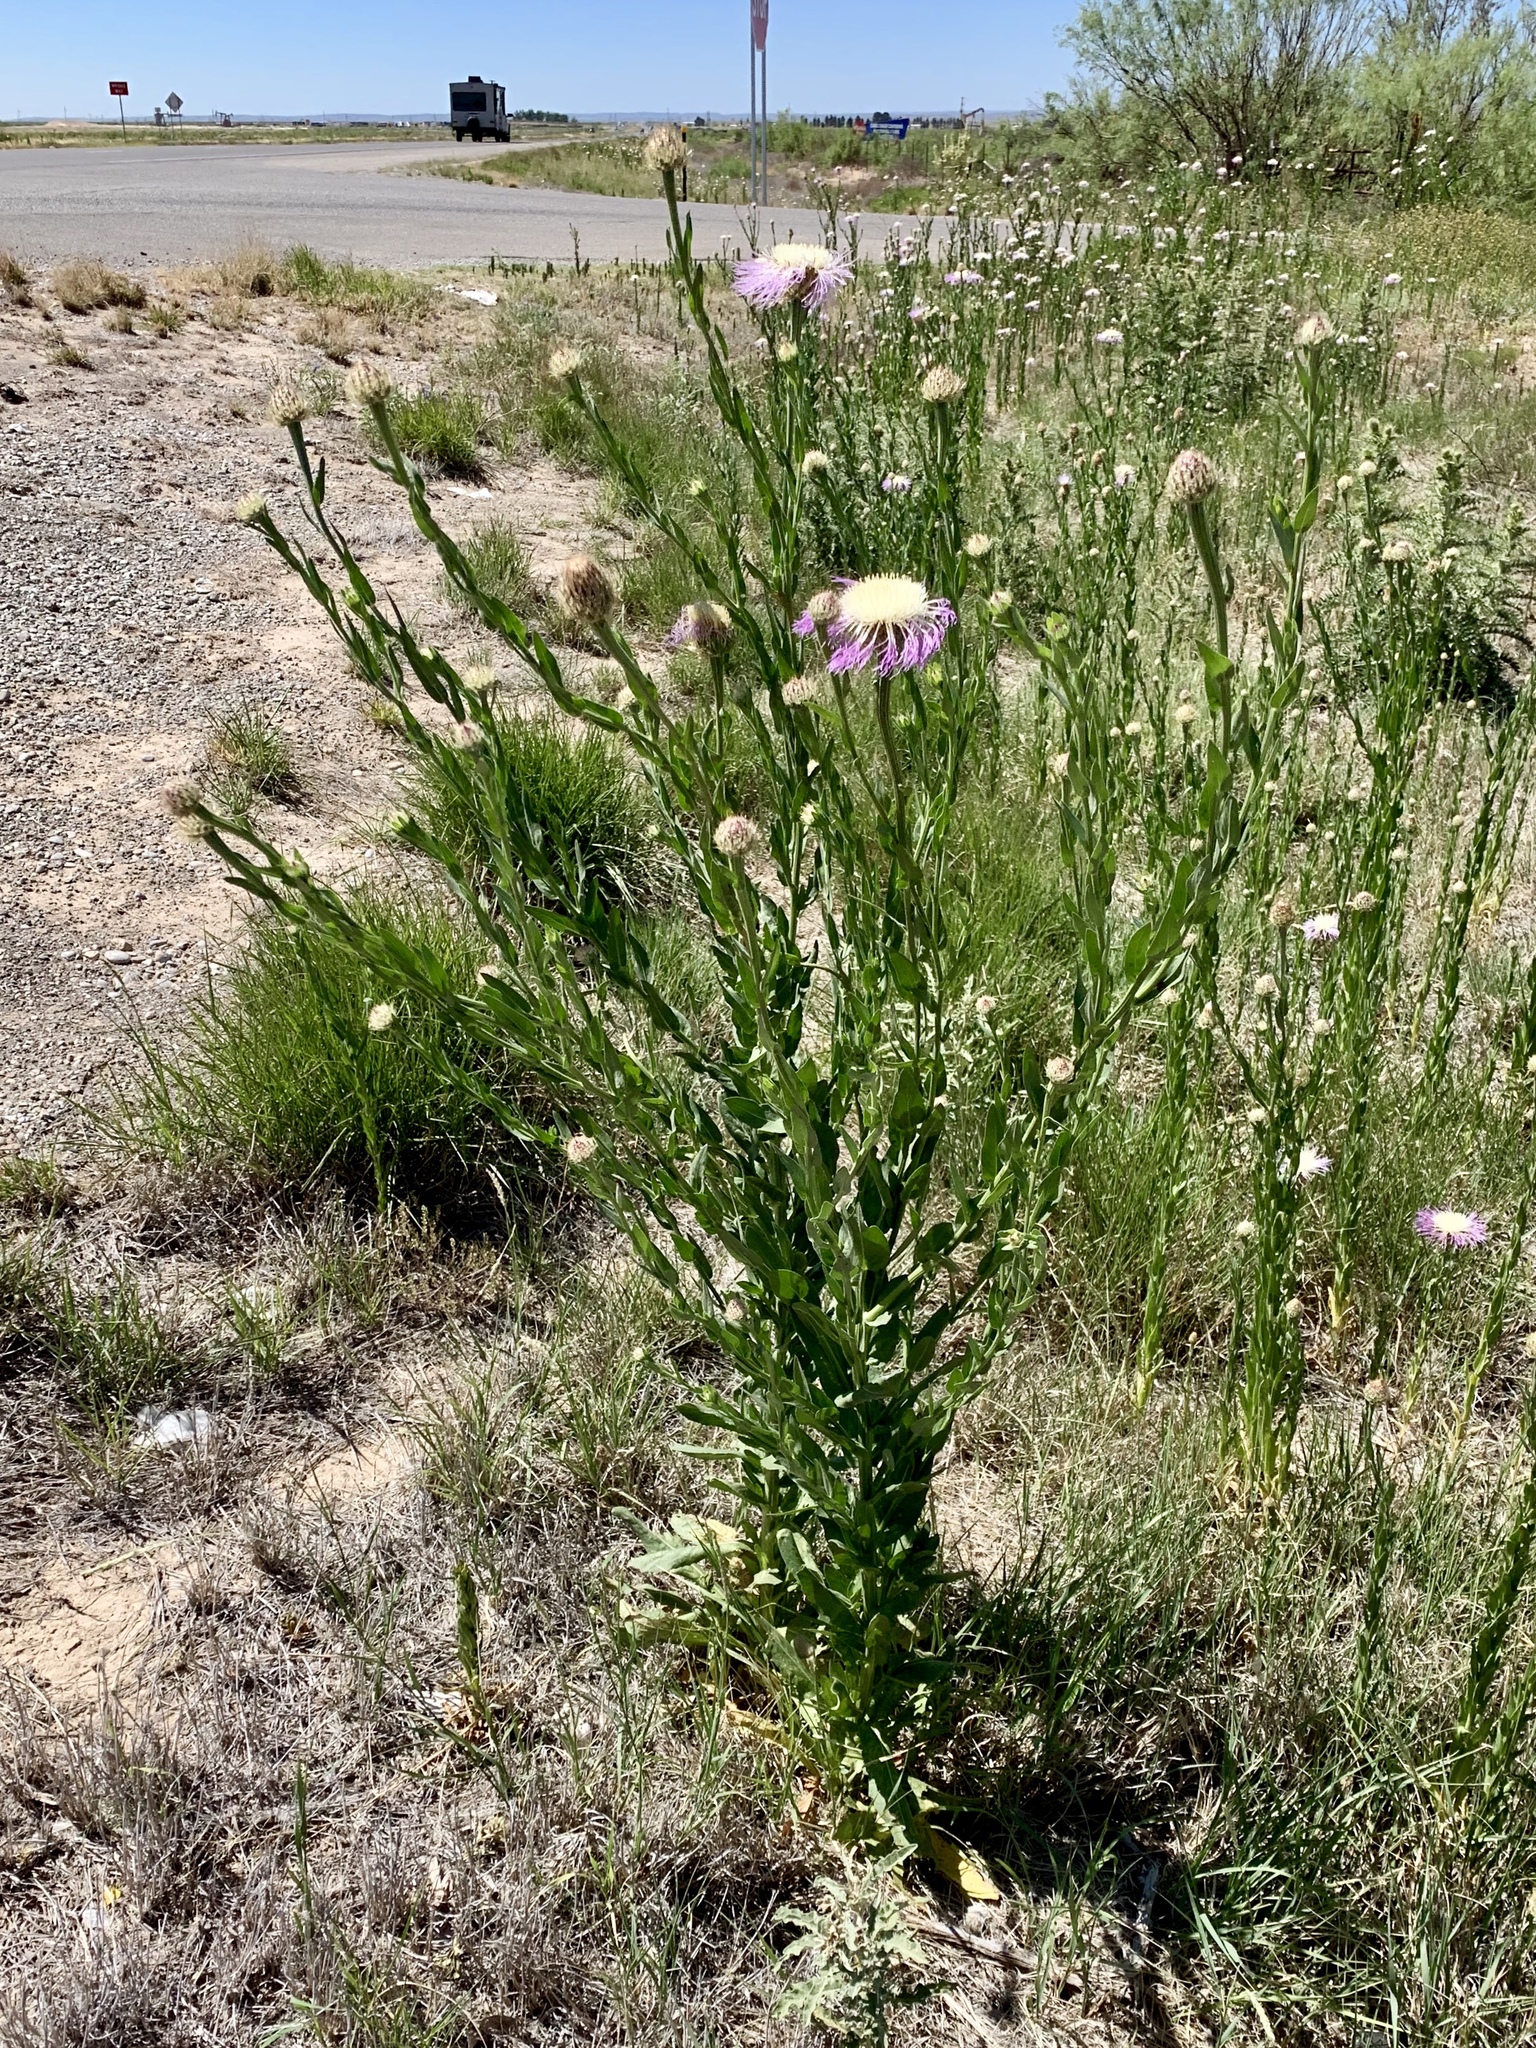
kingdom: Plantae
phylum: Tracheophyta
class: Magnoliopsida
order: Asterales
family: Asteraceae
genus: Plectocephalus
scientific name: Plectocephalus americanus
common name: American basket-flower
